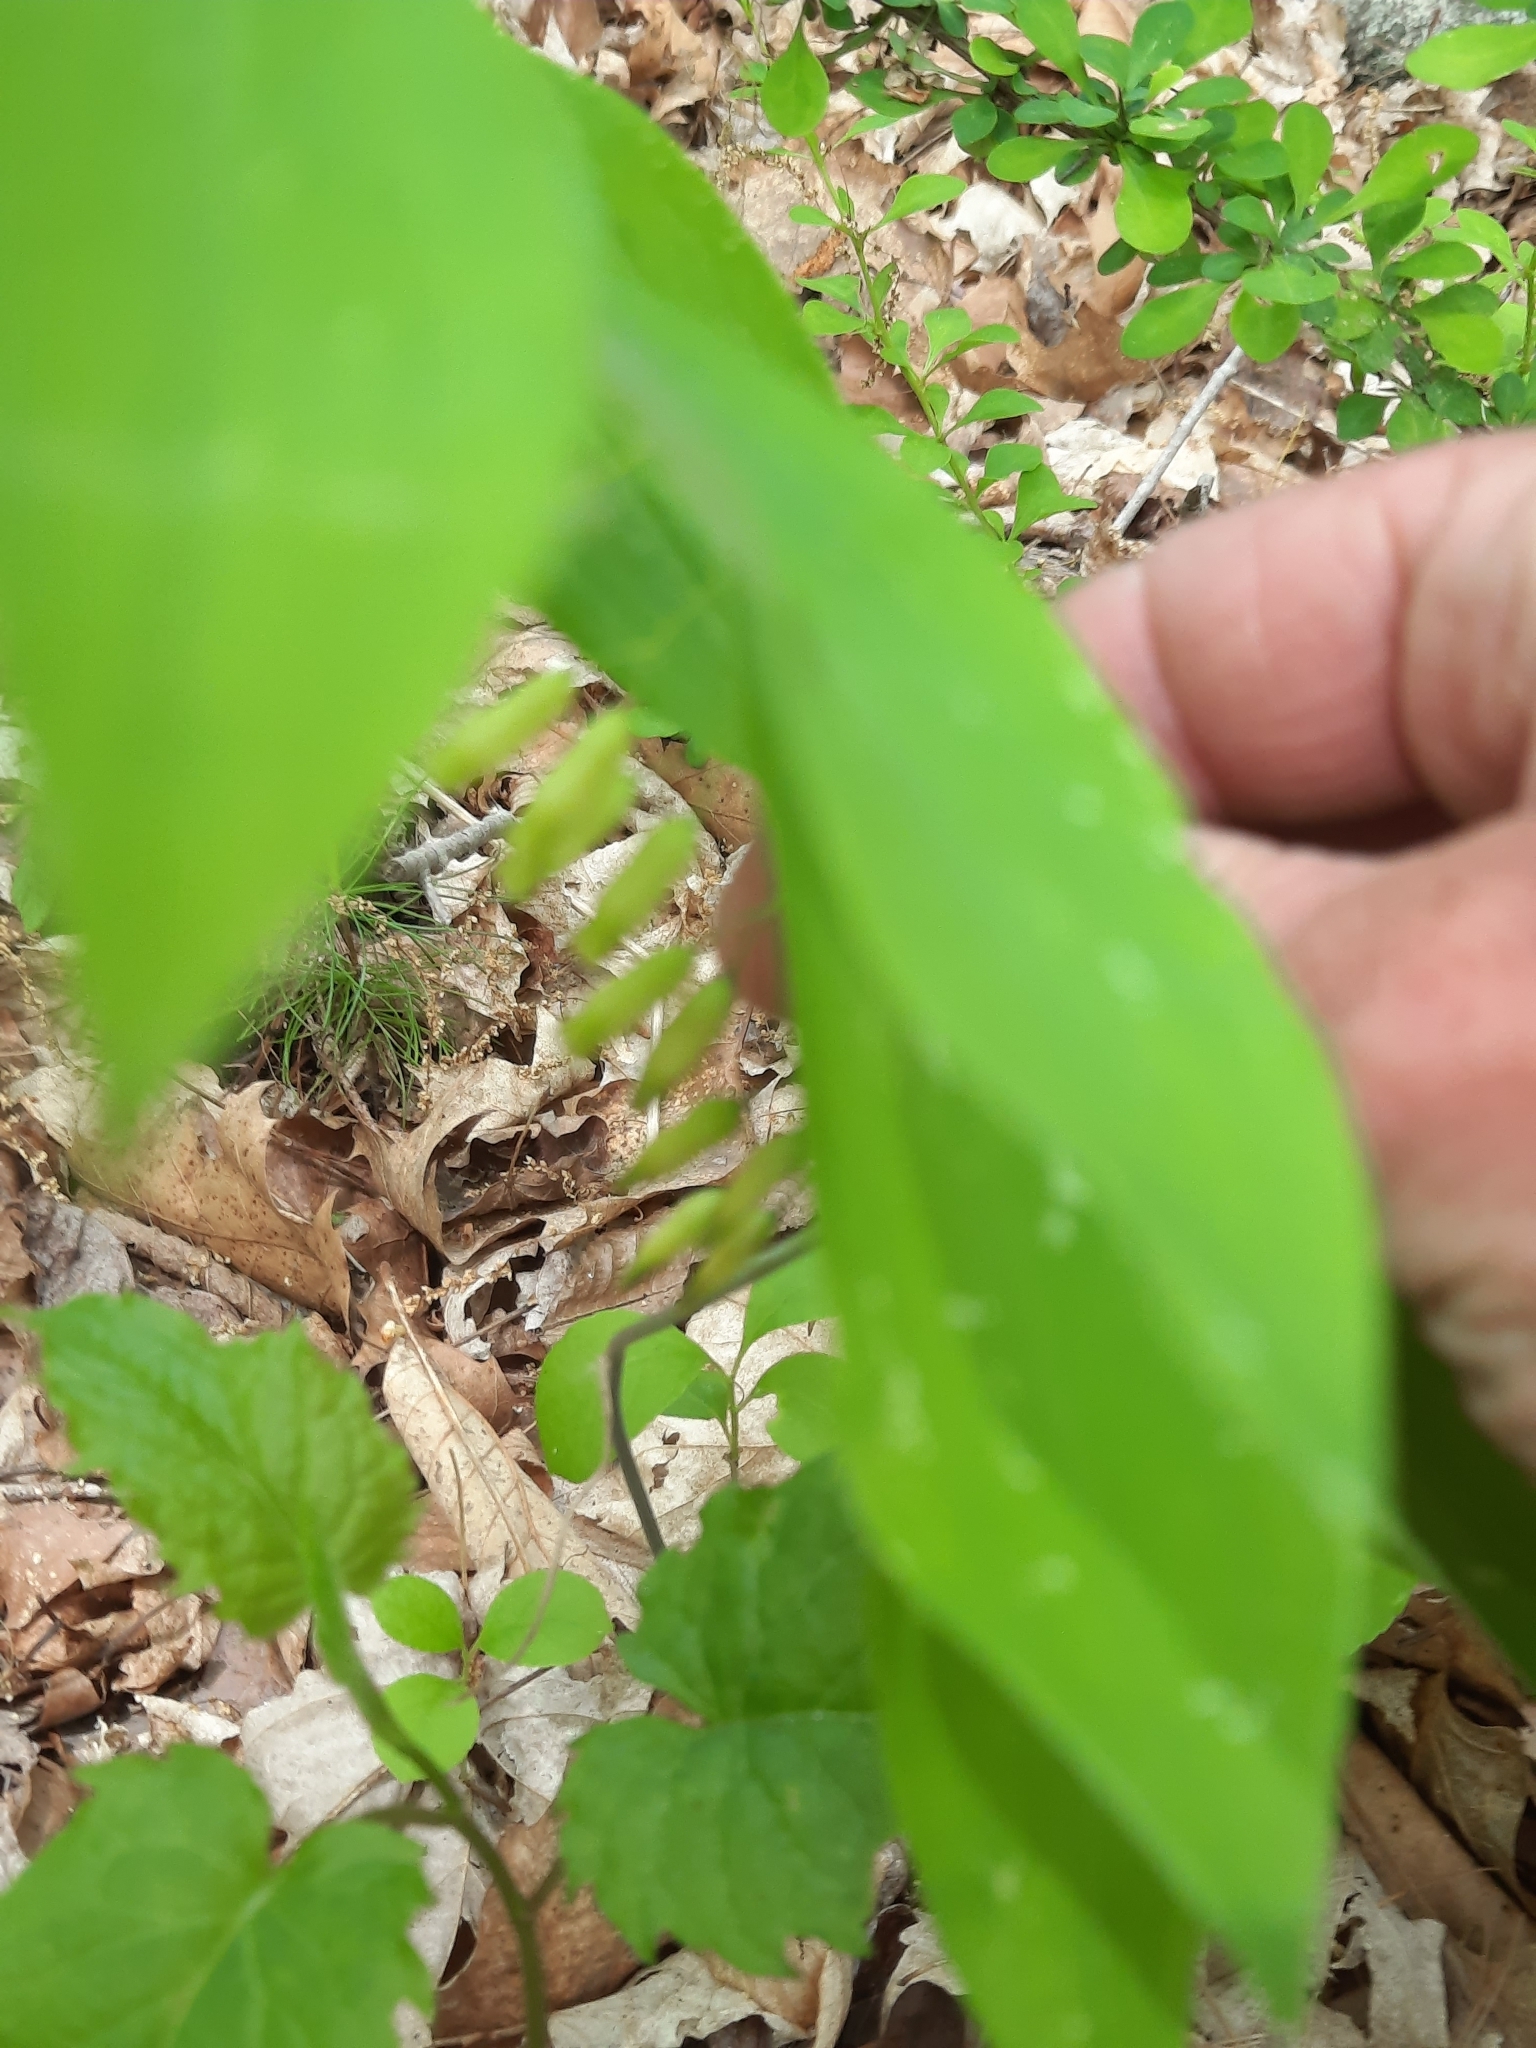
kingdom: Plantae
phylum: Tracheophyta
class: Liliopsida
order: Asparagales
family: Asparagaceae
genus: Polygonatum
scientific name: Polygonatum pubescens
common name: Downy solomon's seal
